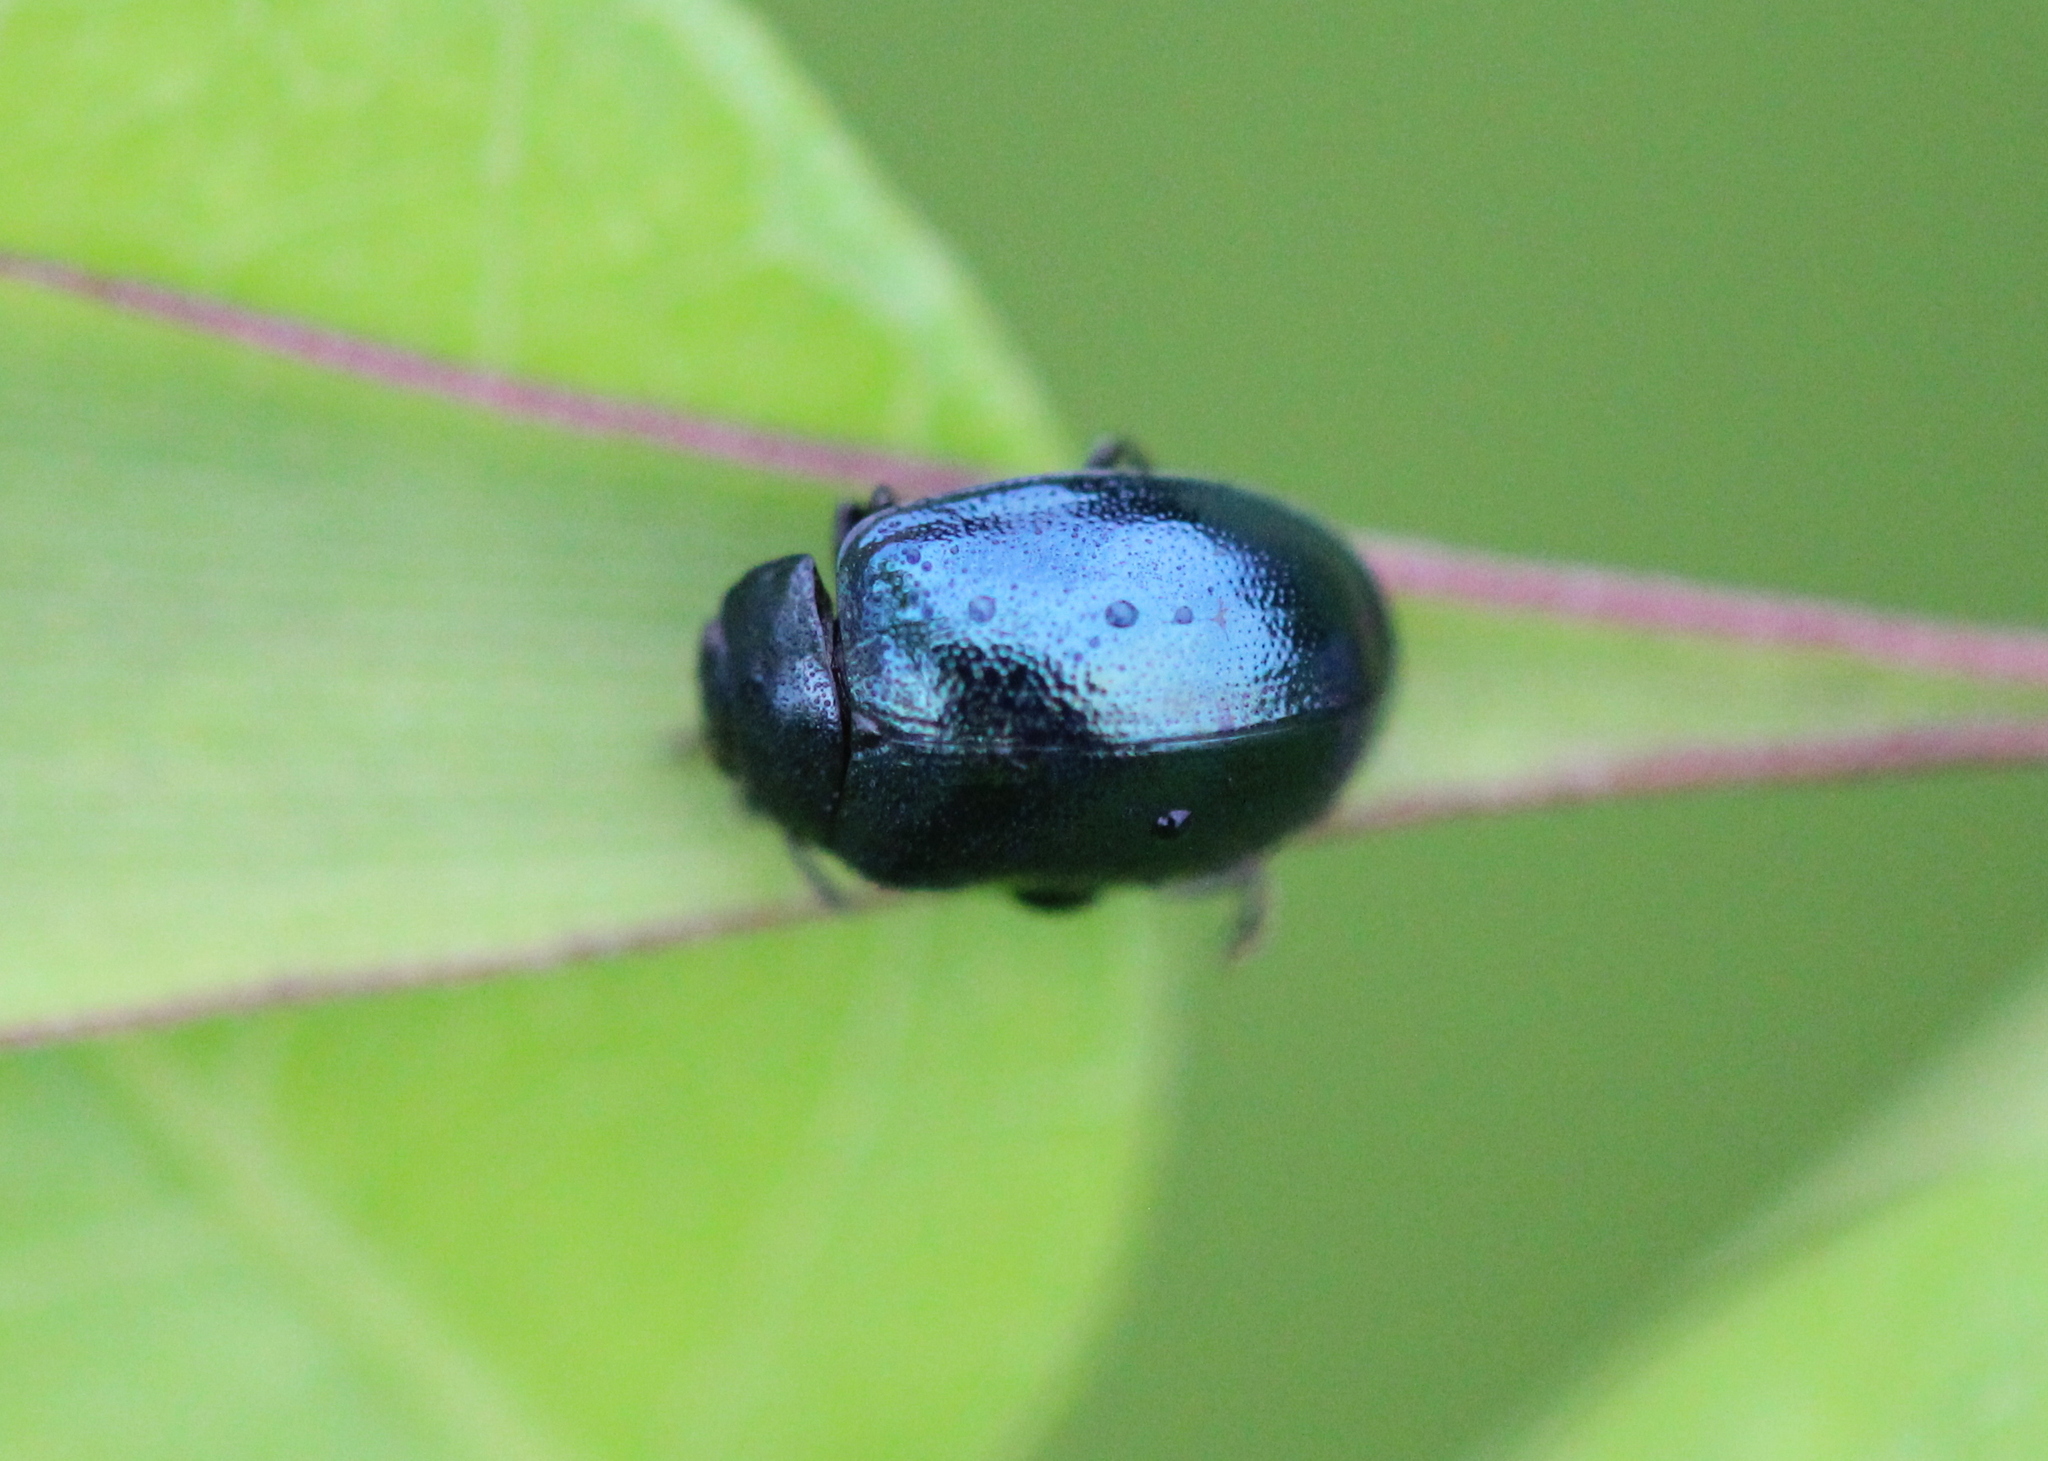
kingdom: Animalia
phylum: Arthropoda
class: Insecta
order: Coleoptera
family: Chrysomelidae
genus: Plagiodera
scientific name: Plagiodera versicolora
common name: Imported willow leaf beetle
